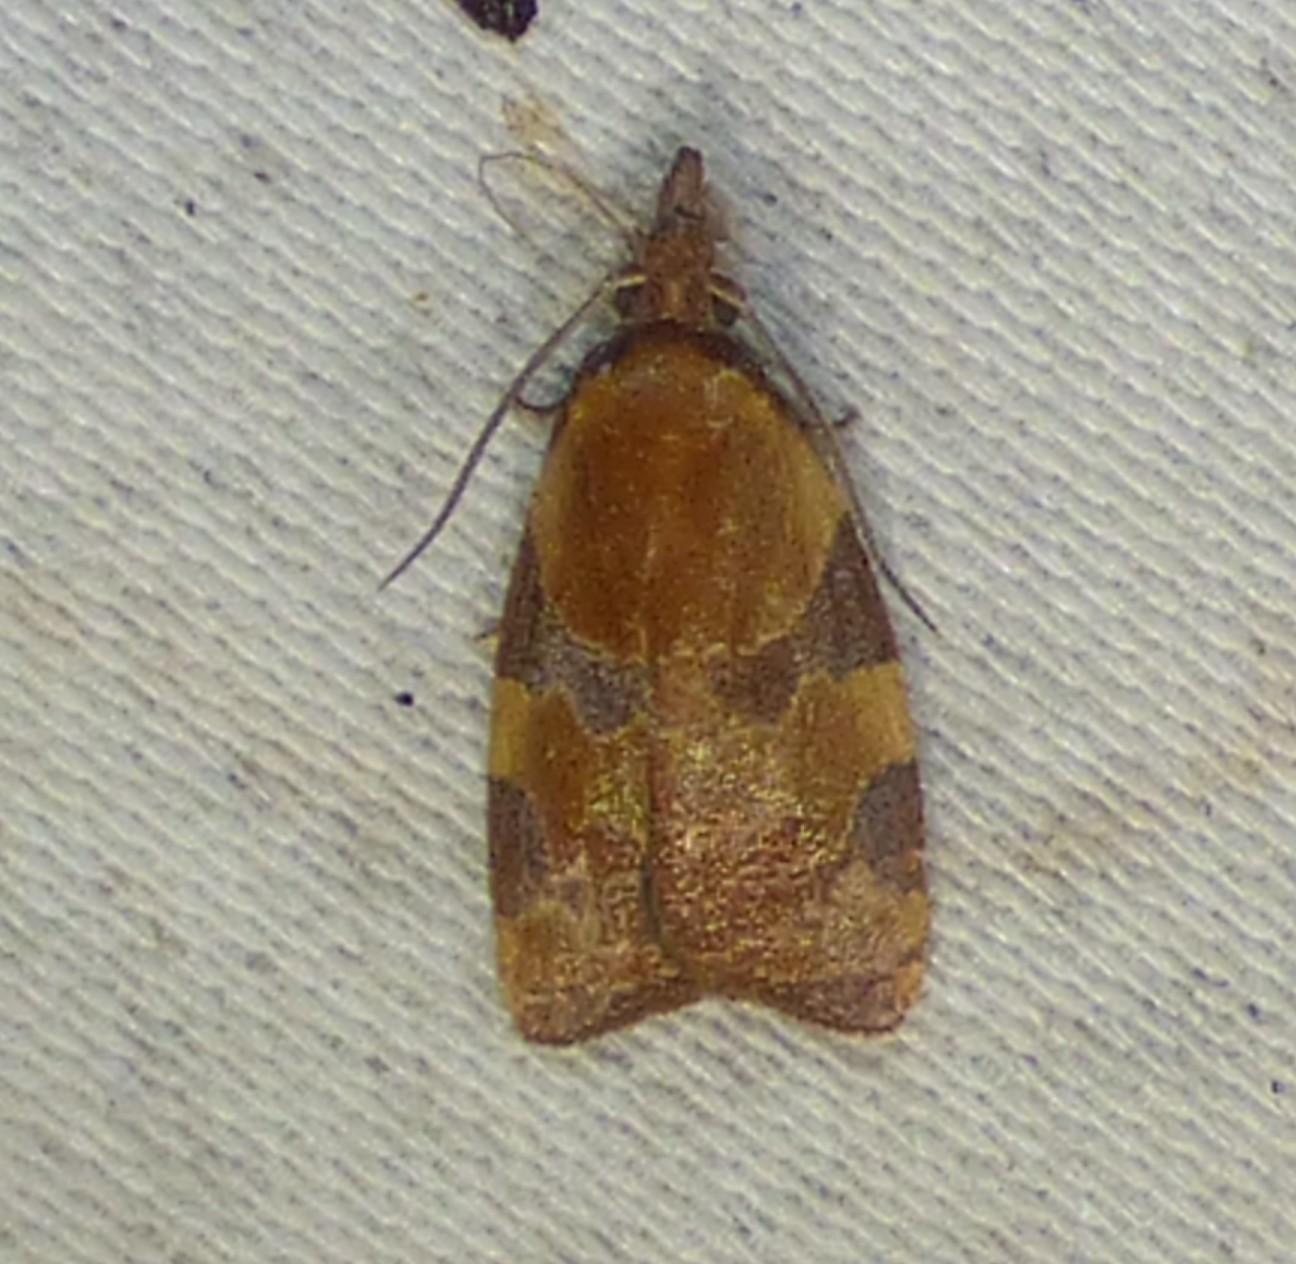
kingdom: Animalia
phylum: Arthropoda
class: Insecta
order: Lepidoptera
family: Tortricidae
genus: Cenopis
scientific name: Cenopis diluticostana
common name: Spring dead-leaf roller moth
